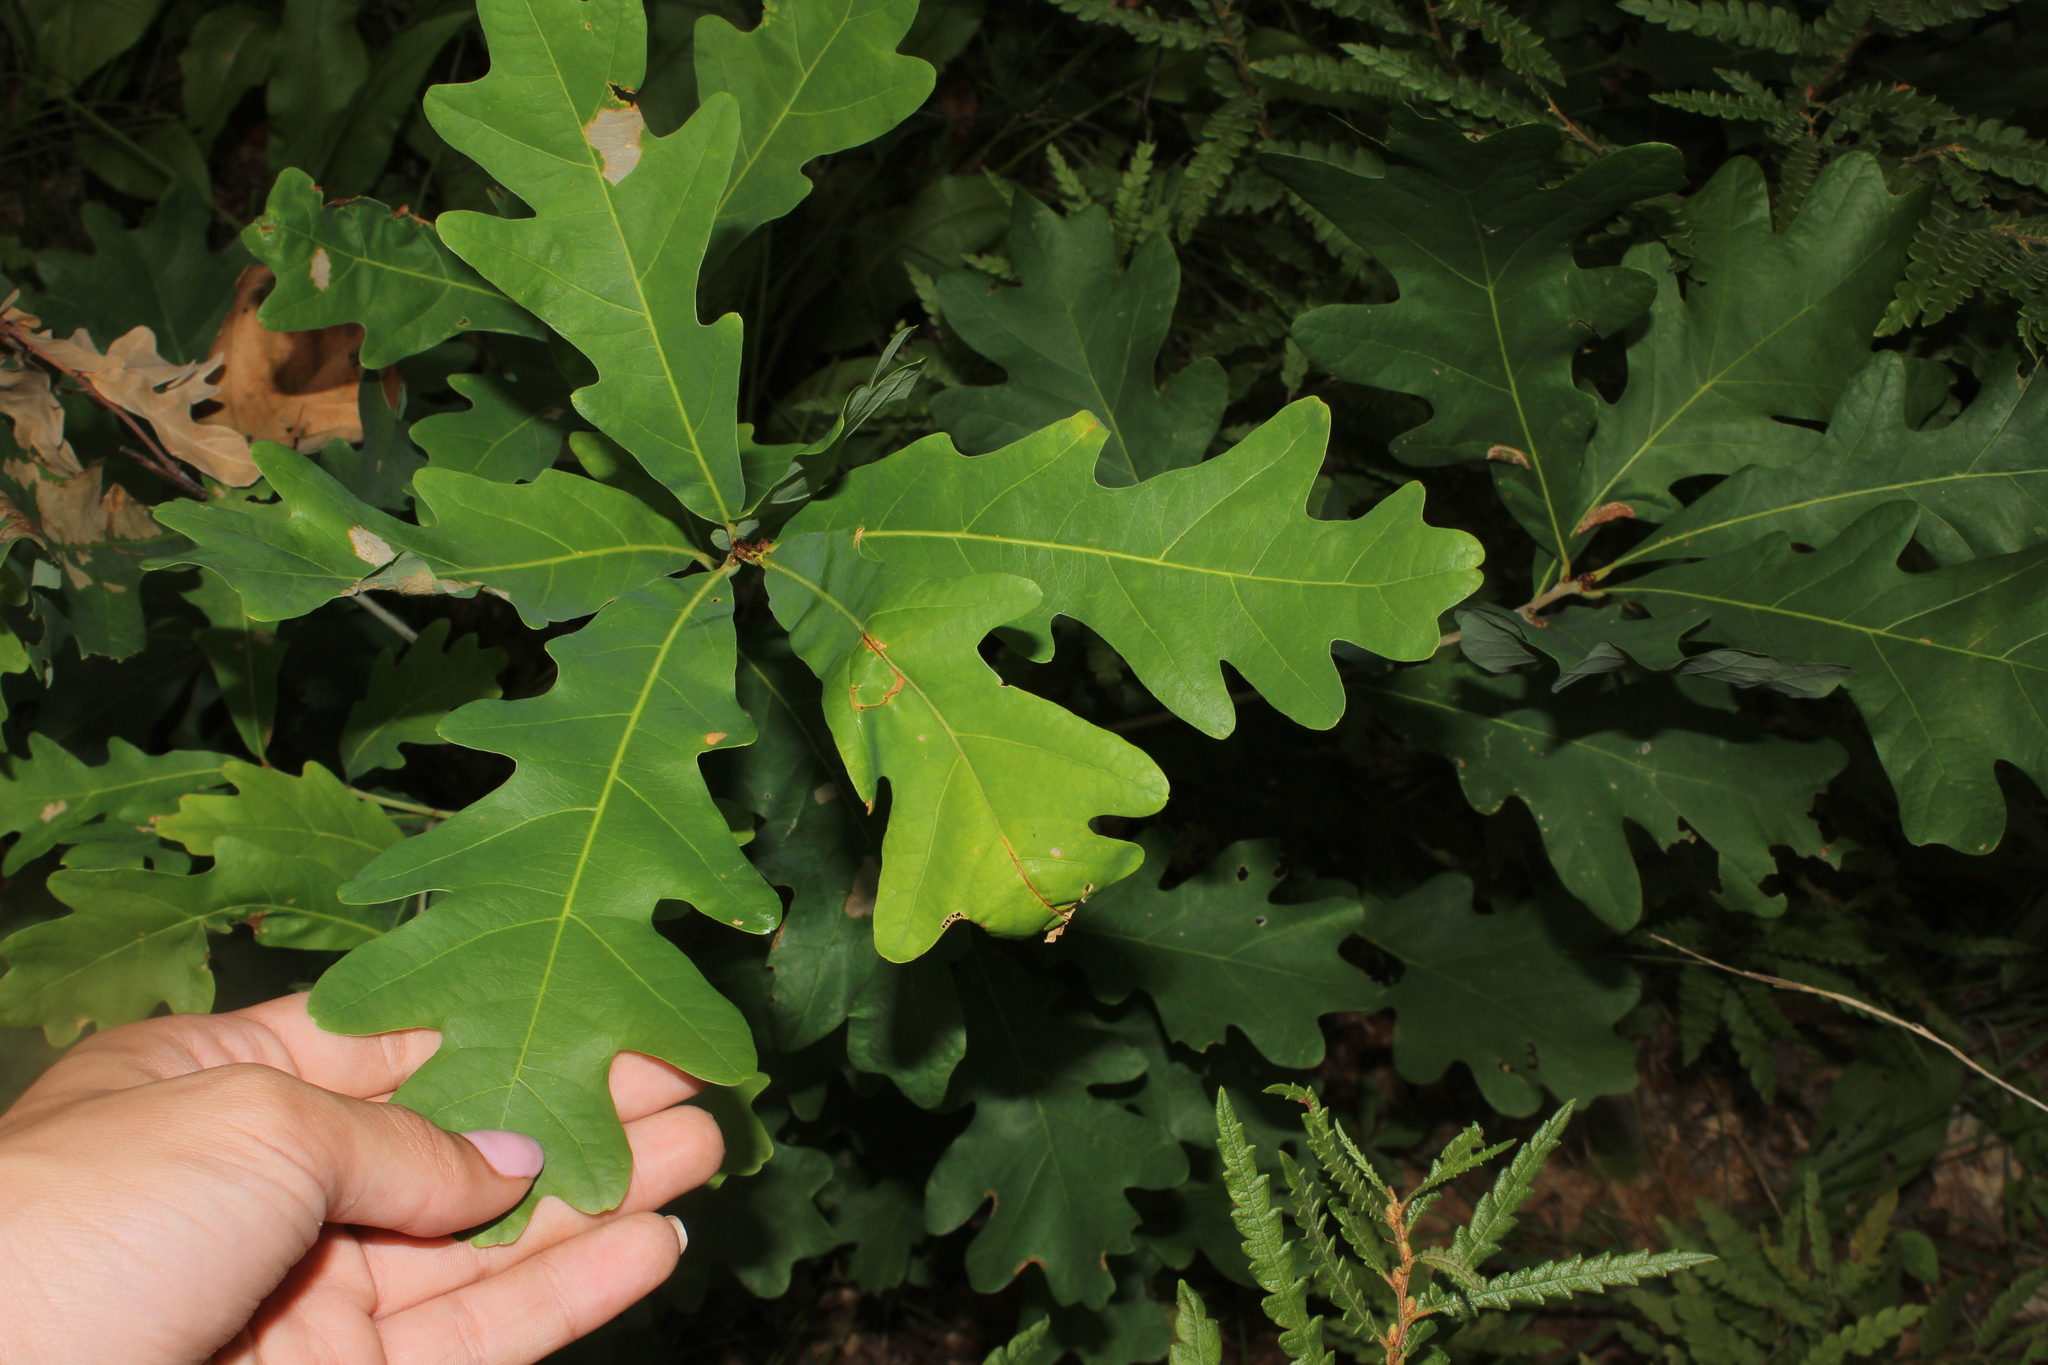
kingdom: Plantae
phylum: Tracheophyta
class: Magnoliopsida
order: Fagales
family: Fagaceae
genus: Quercus
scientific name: Quercus alba
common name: White oak
